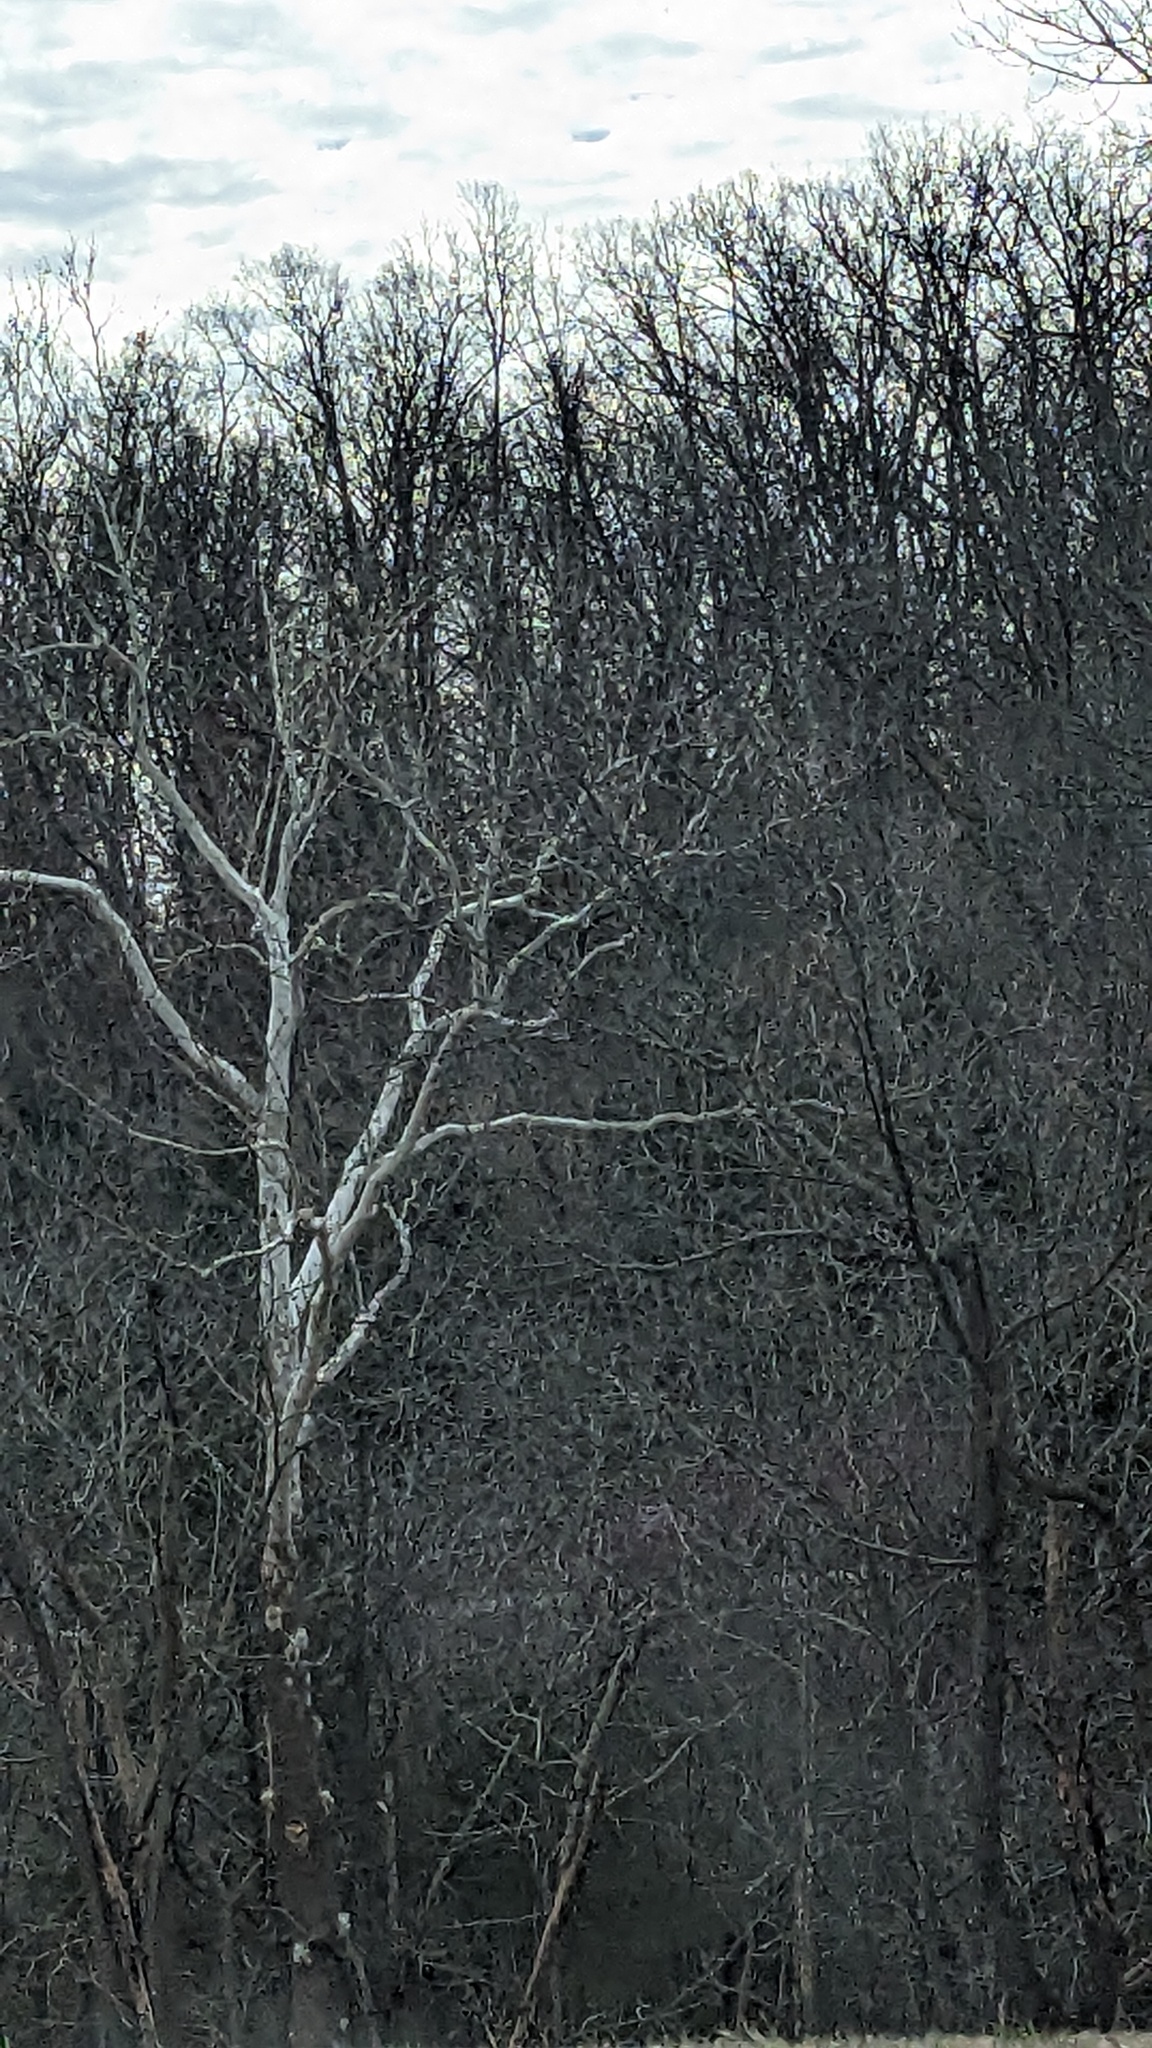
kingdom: Plantae
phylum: Tracheophyta
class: Magnoliopsida
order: Proteales
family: Platanaceae
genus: Platanus
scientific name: Platanus occidentalis
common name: American sycamore
